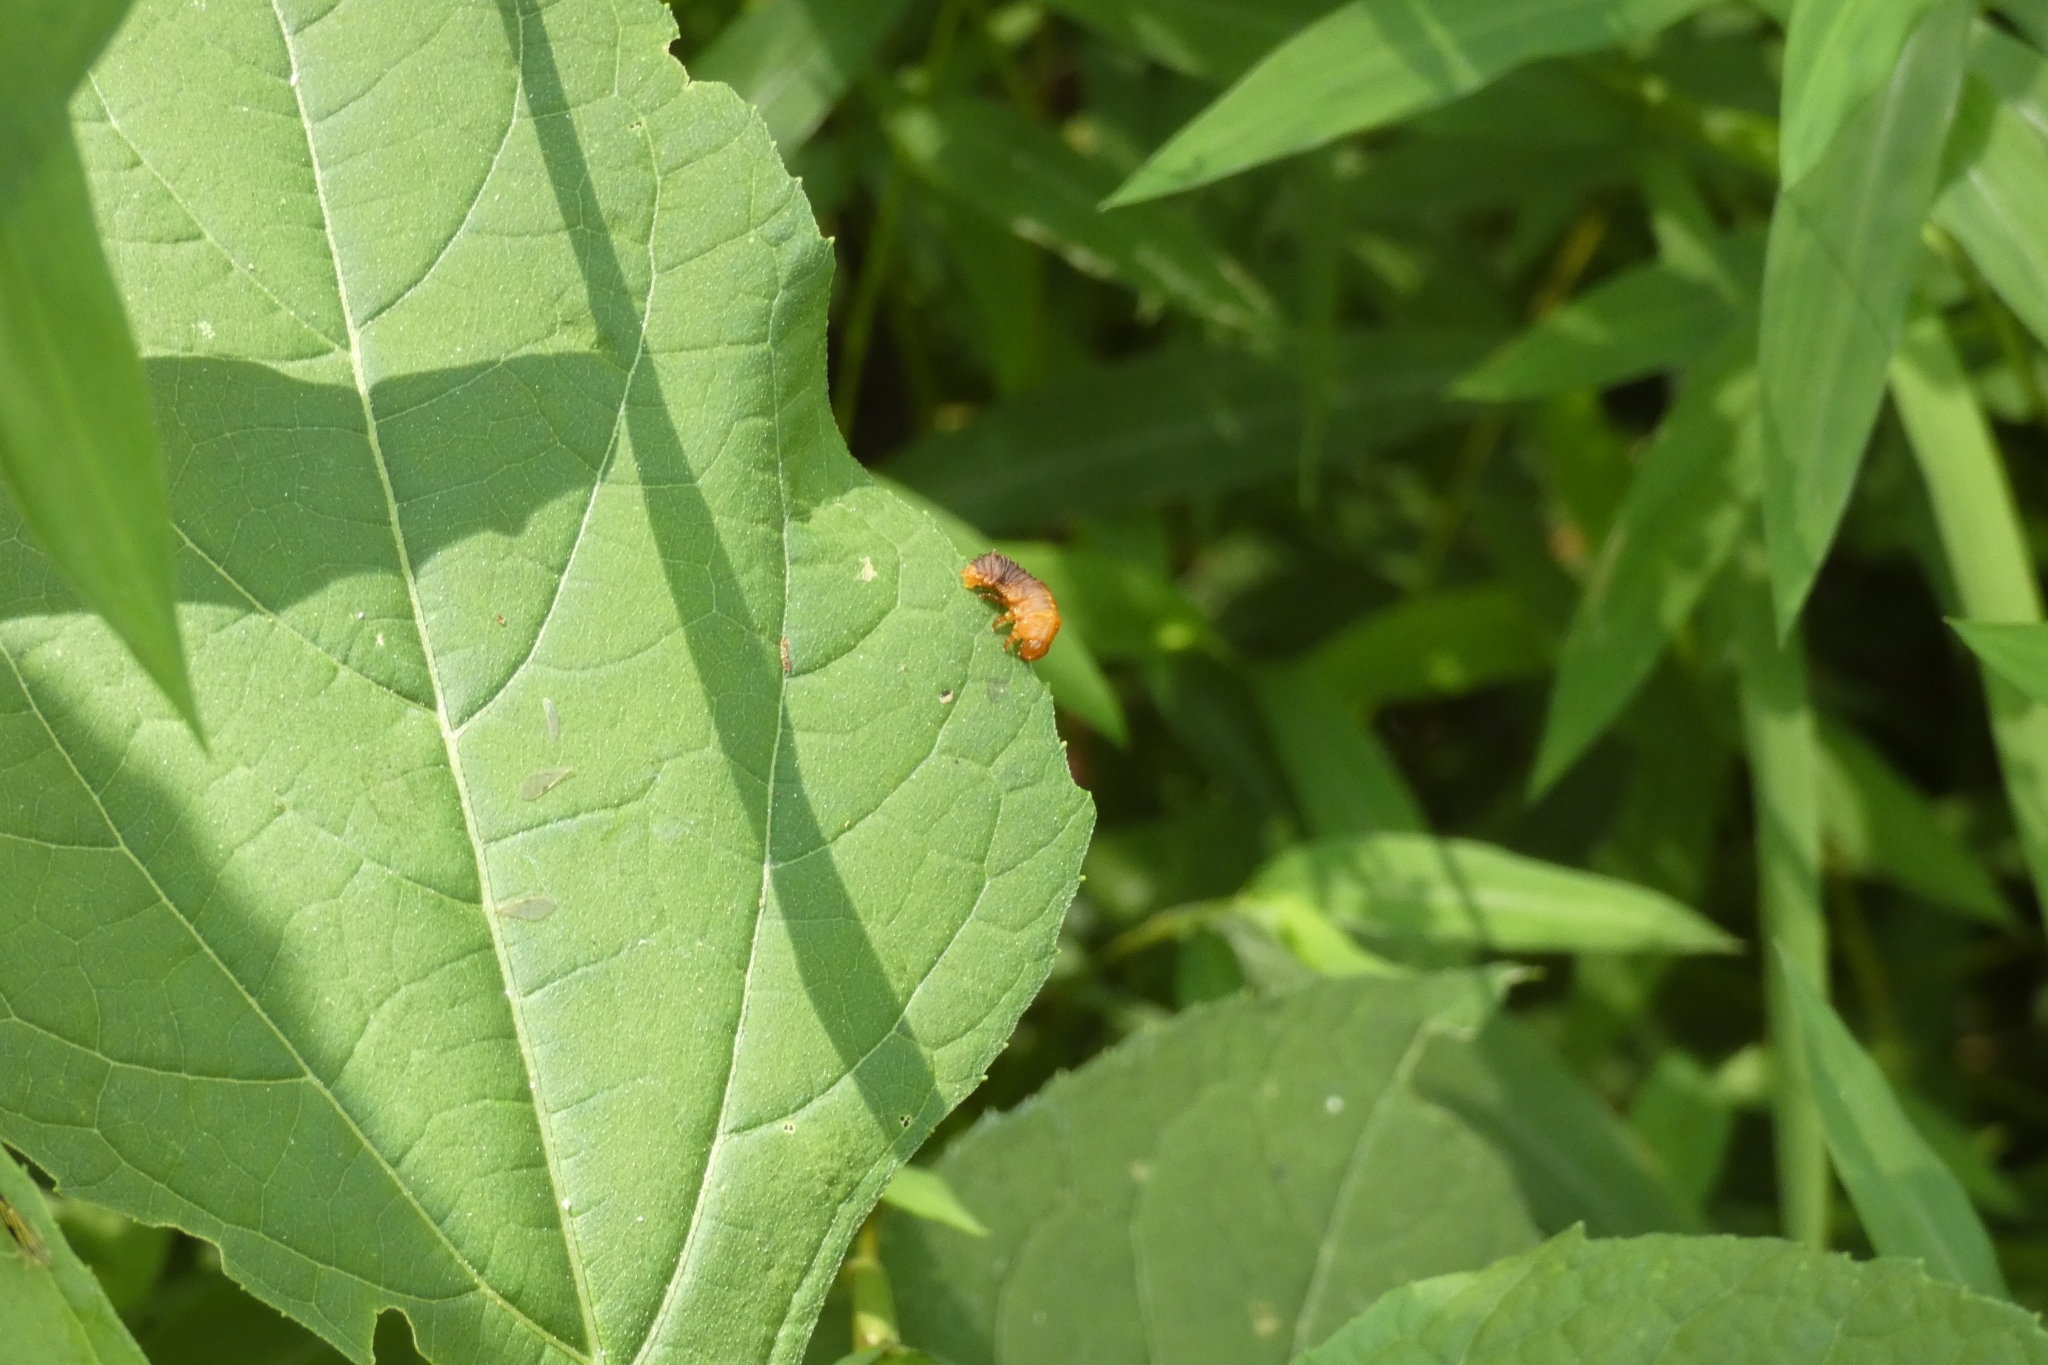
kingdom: Animalia
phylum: Arthropoda
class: Insecta
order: Coleoptera
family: Chrysomelidae
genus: Monocesta
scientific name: Monocesta coryli
